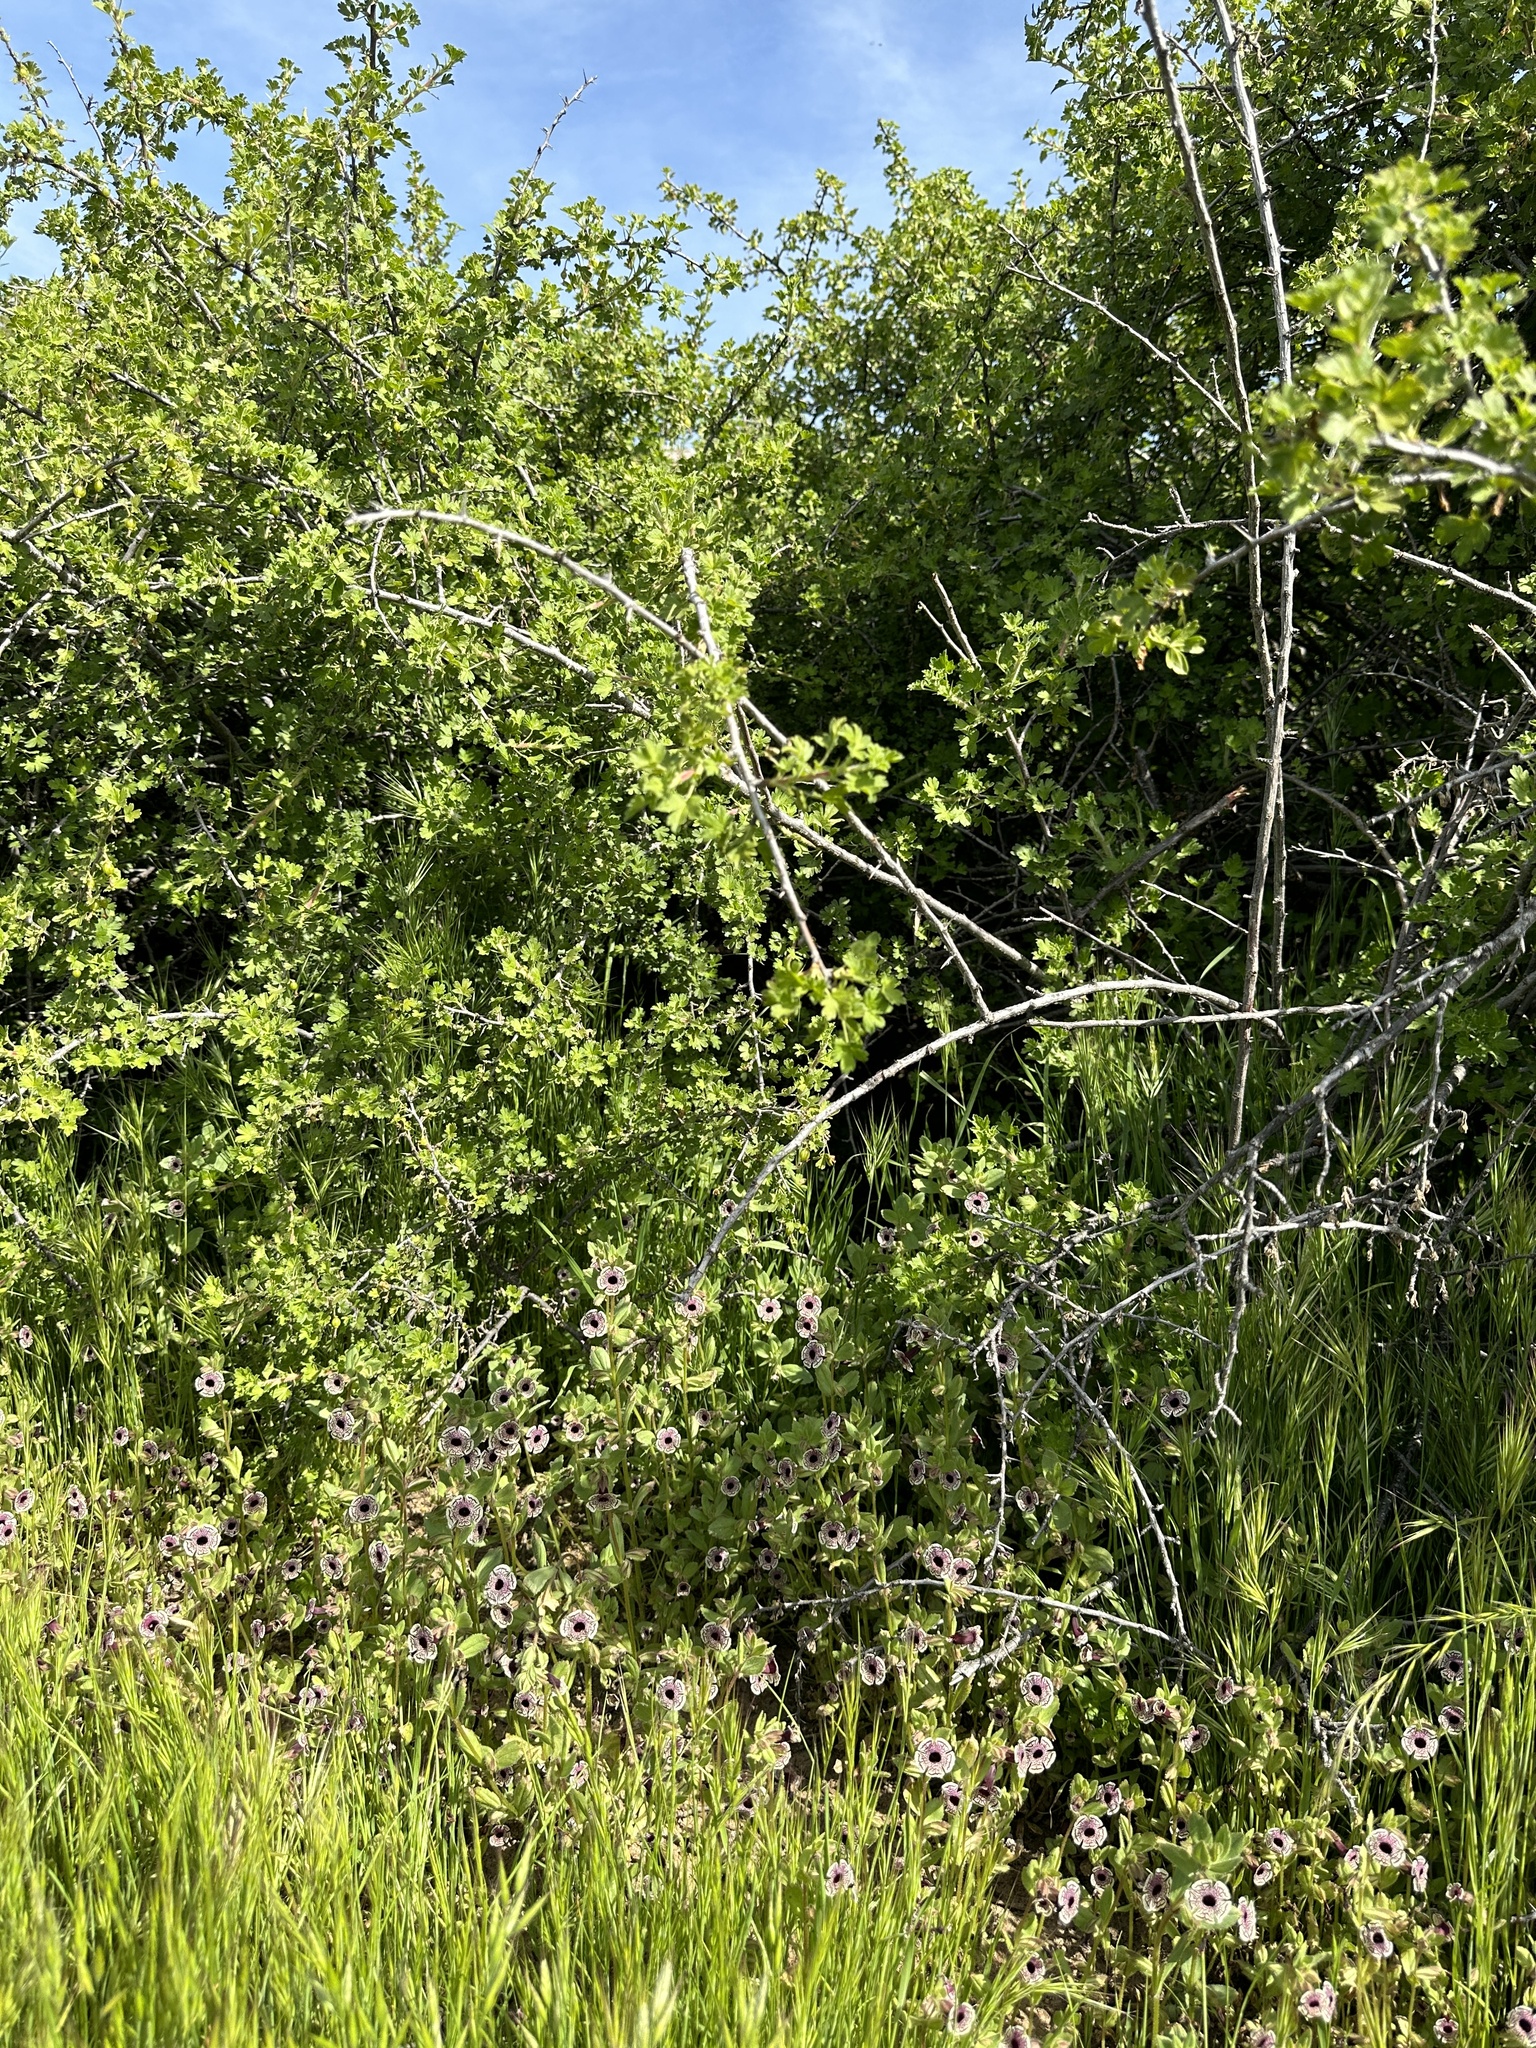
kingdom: Plantae
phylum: Tracheophyta
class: Magnoliopsida
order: Lamiales
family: Phrymaceae
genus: Diplacus
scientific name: Diplacus pictus
